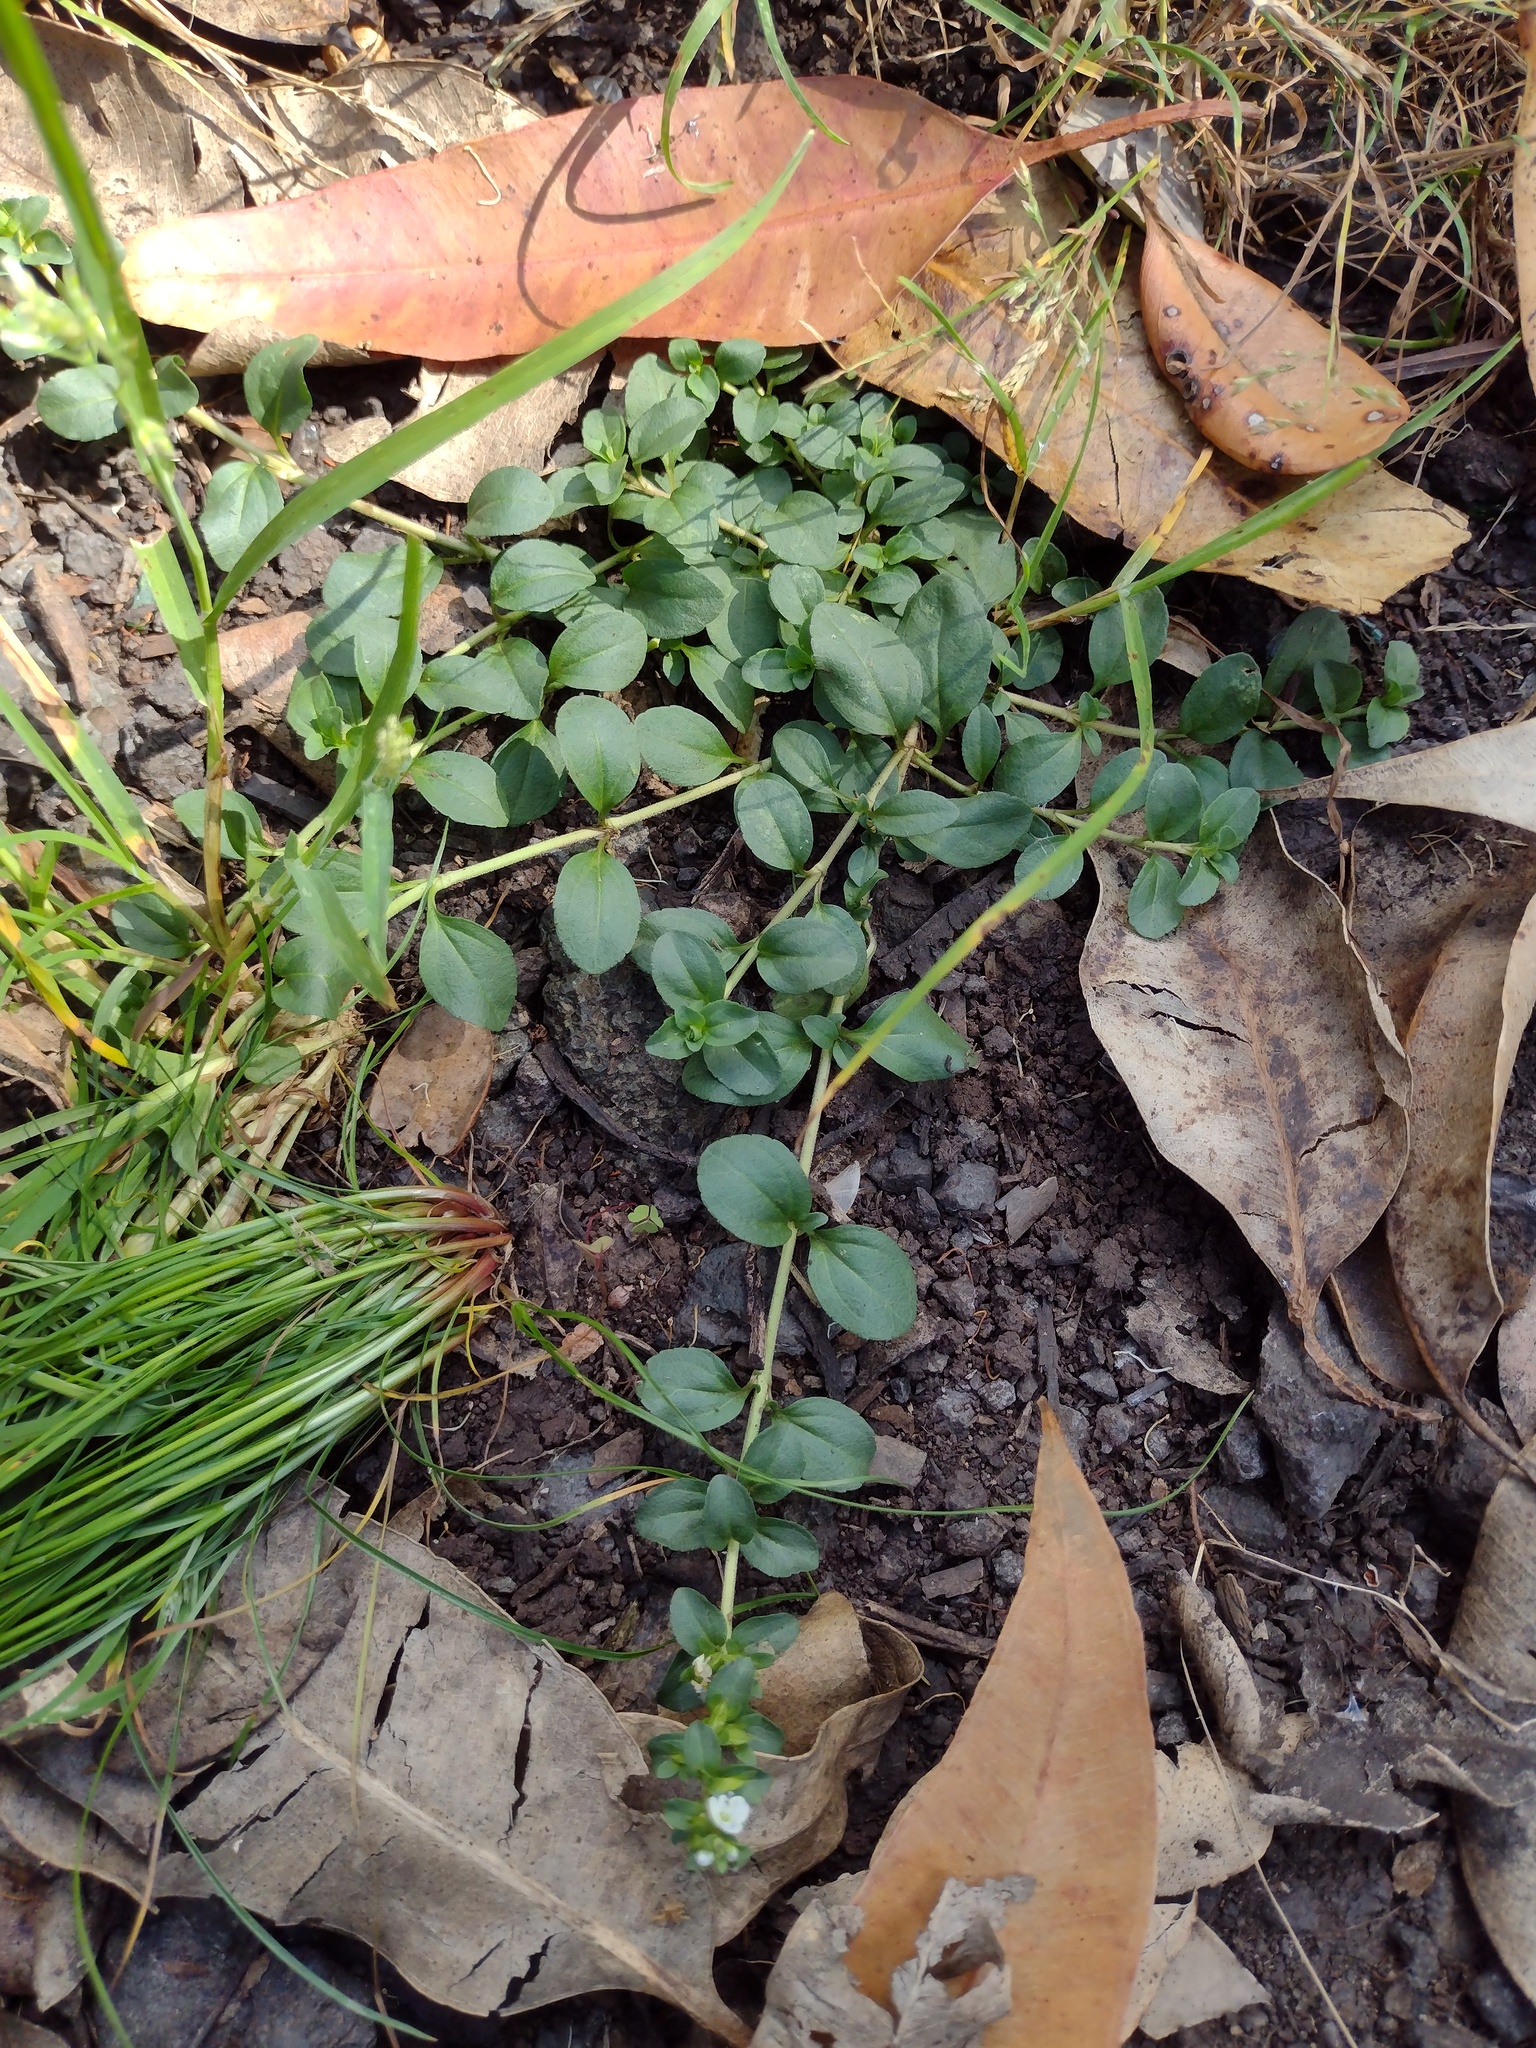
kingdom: Plantae
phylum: Tracheophyta
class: Magnoliopsida
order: Lamiales
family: Plantaginaceae
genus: Veronica
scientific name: Veronica serpyllifolia
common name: Thyme-leaved speedwell
